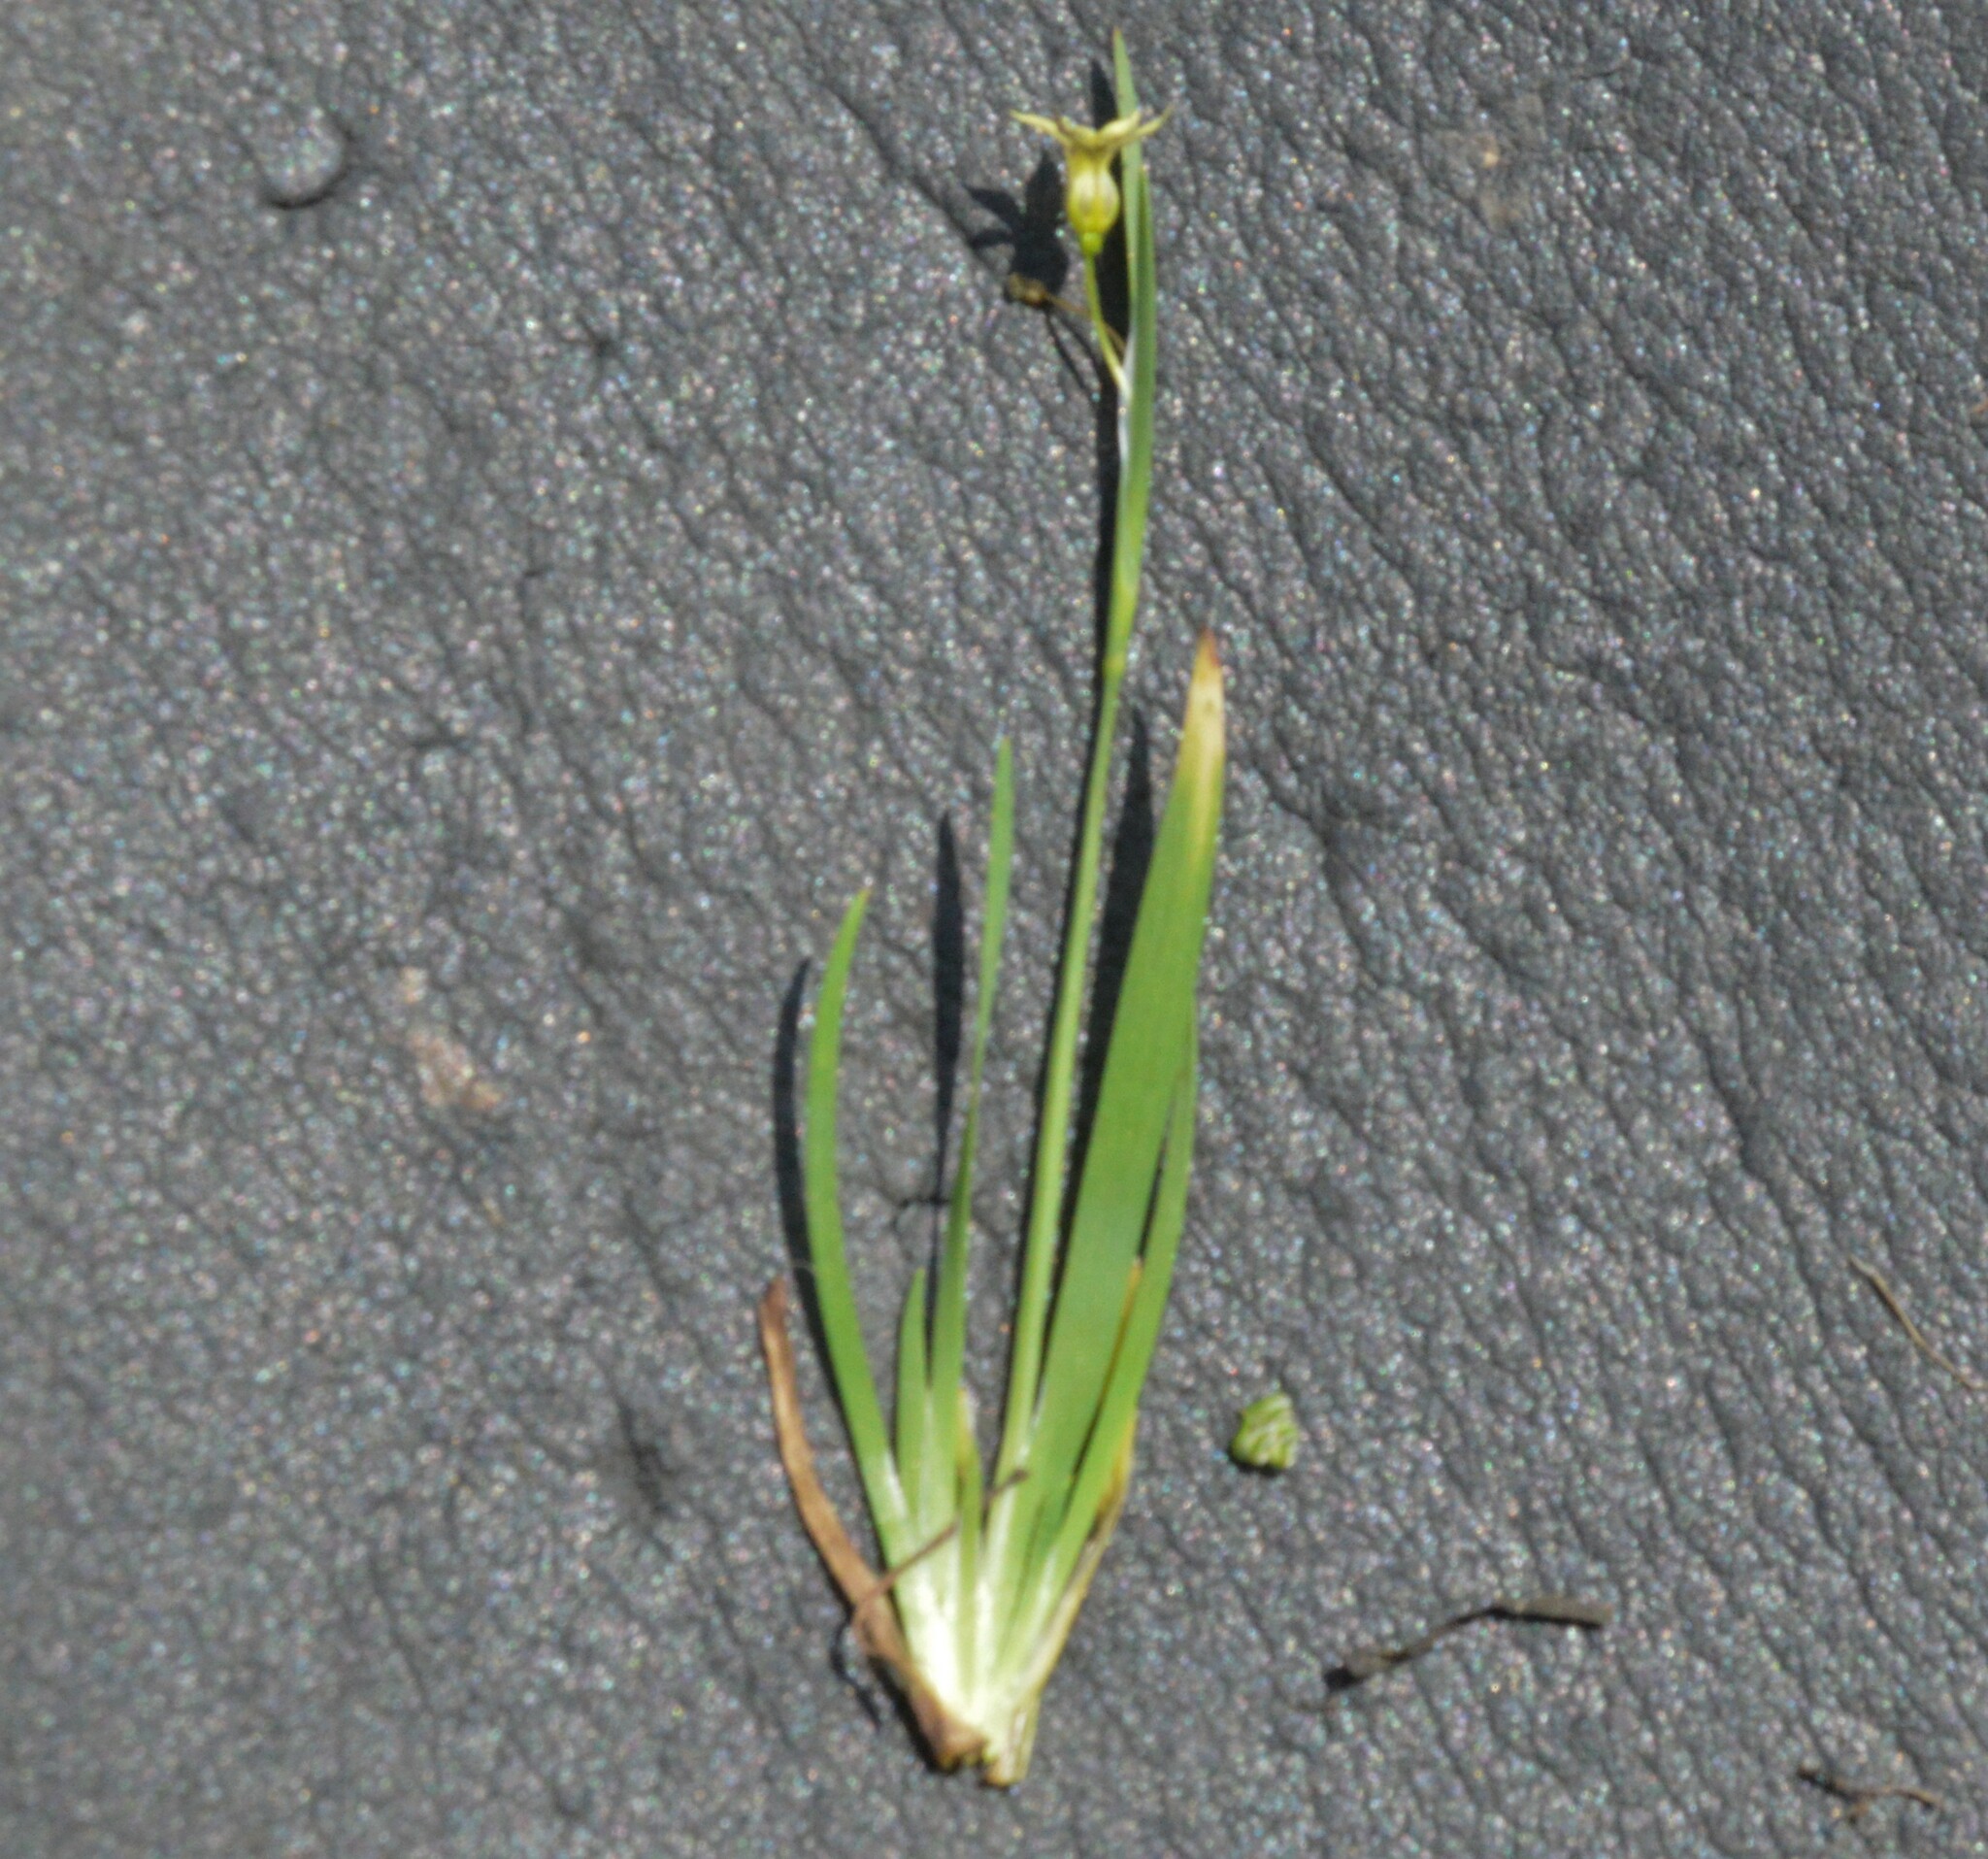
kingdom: Plantae
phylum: Tracheophyta
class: Liliopsida
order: Asparagales
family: Iridaceae
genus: Sisyrinchium
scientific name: Sisyrinchium micranthum
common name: Bermuda pigroot
